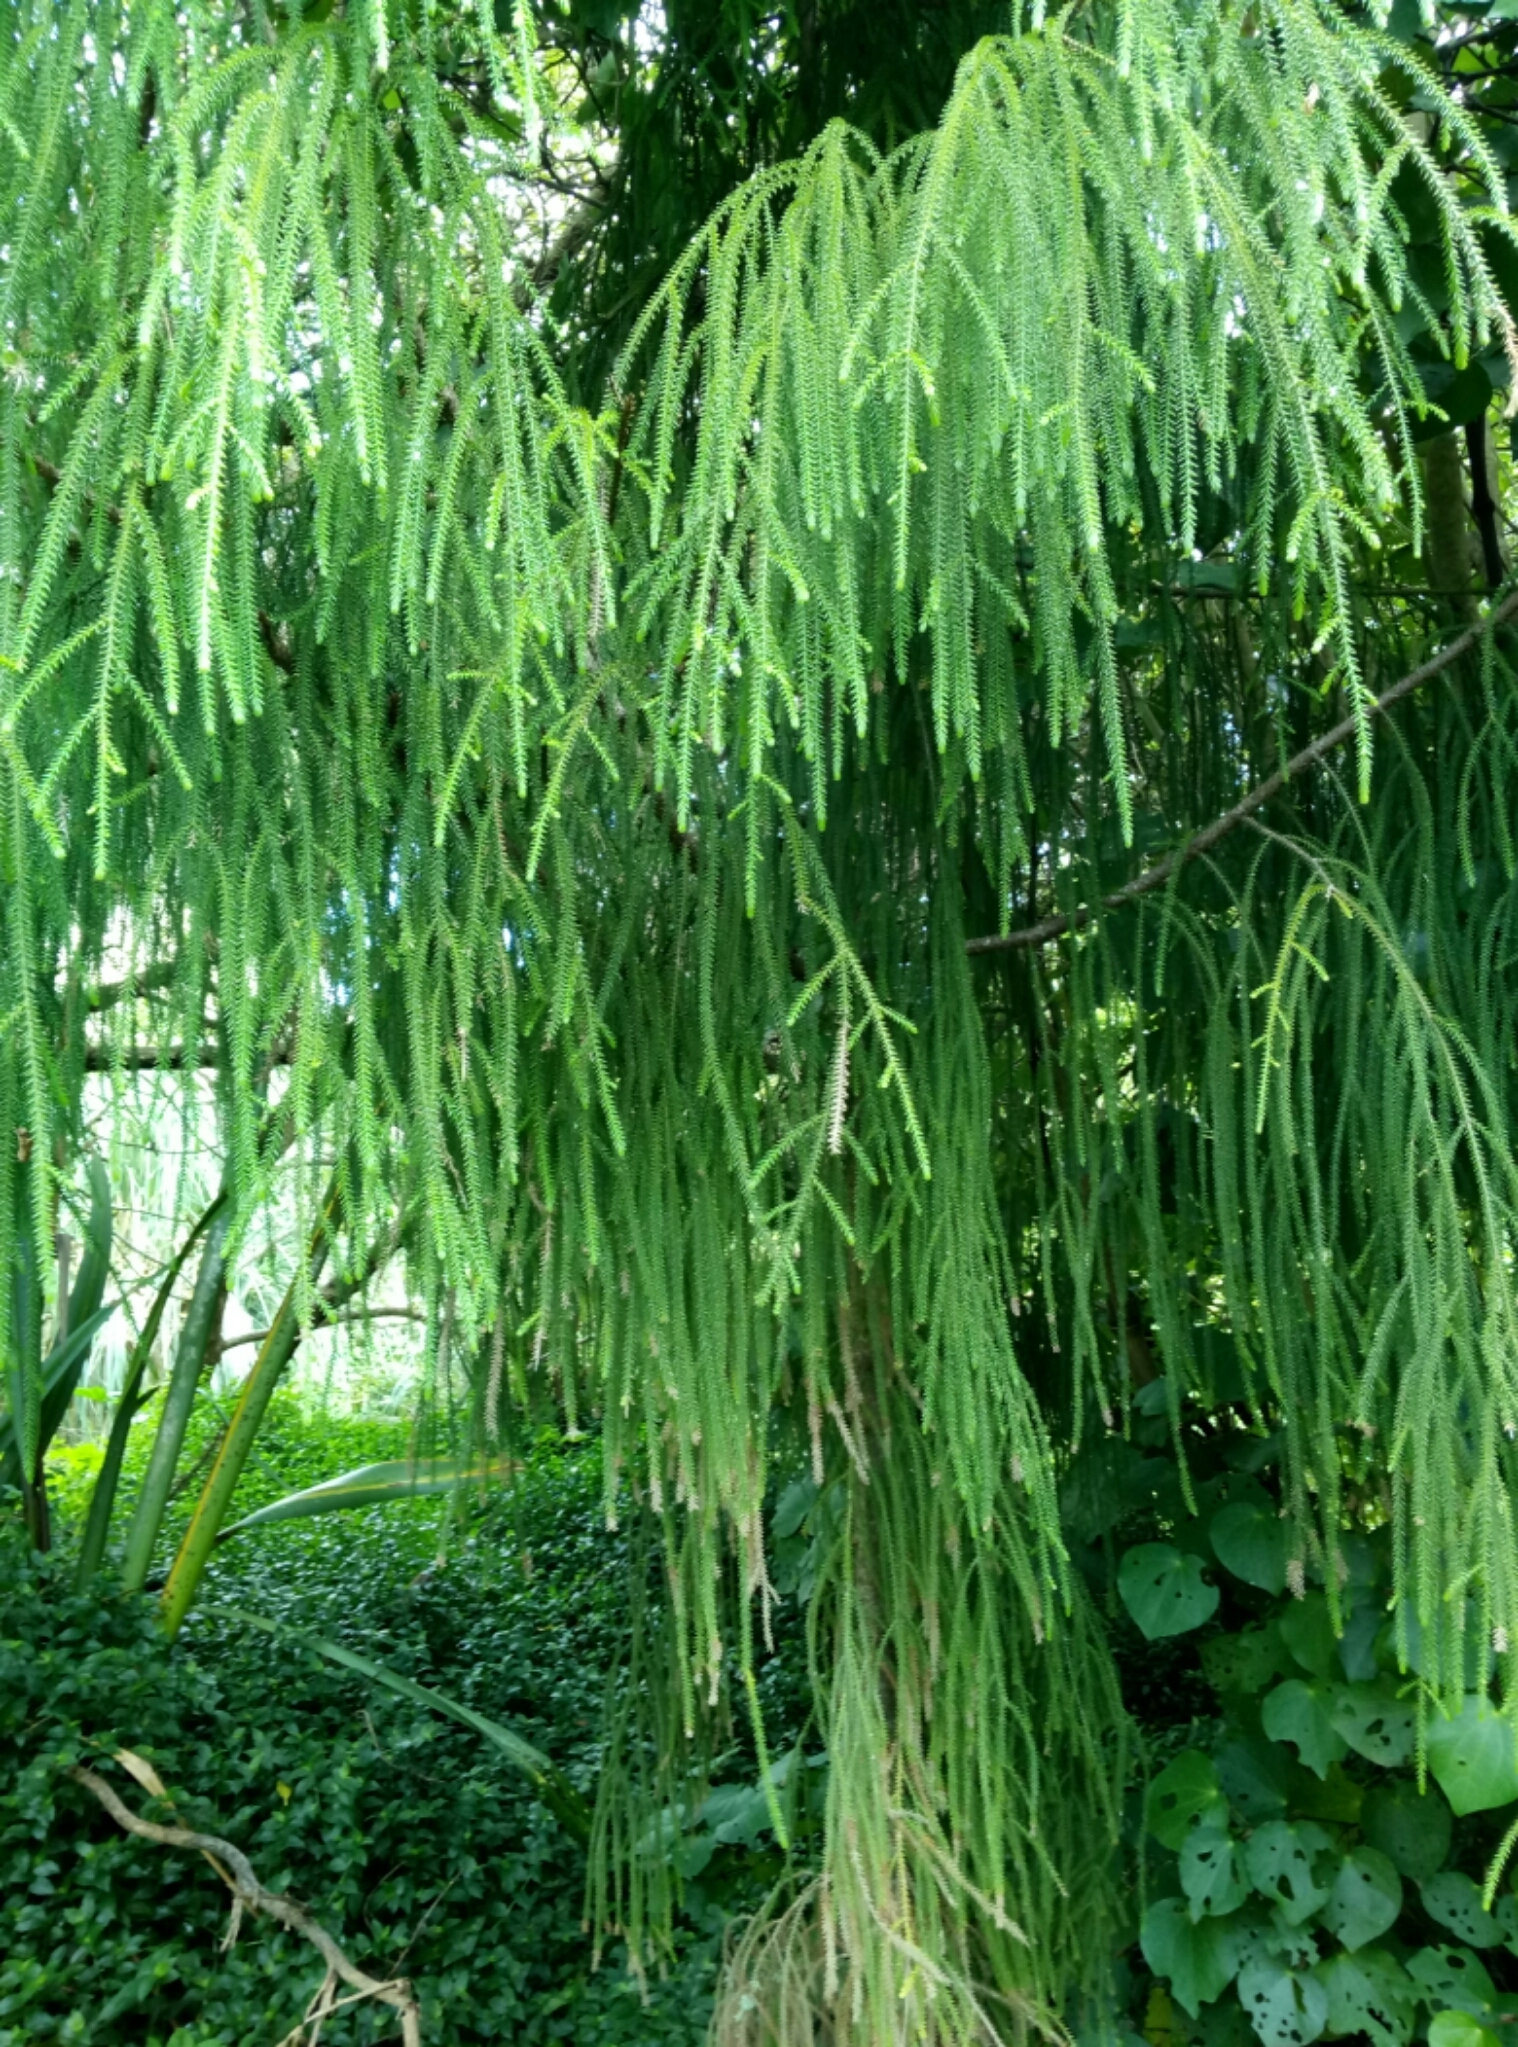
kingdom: Plantae
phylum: Tracheophyta
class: Pinopsida
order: Pinales
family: Podocarpaceae
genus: Dacrydium
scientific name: Dacrydium cupressinum
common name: Red pine
